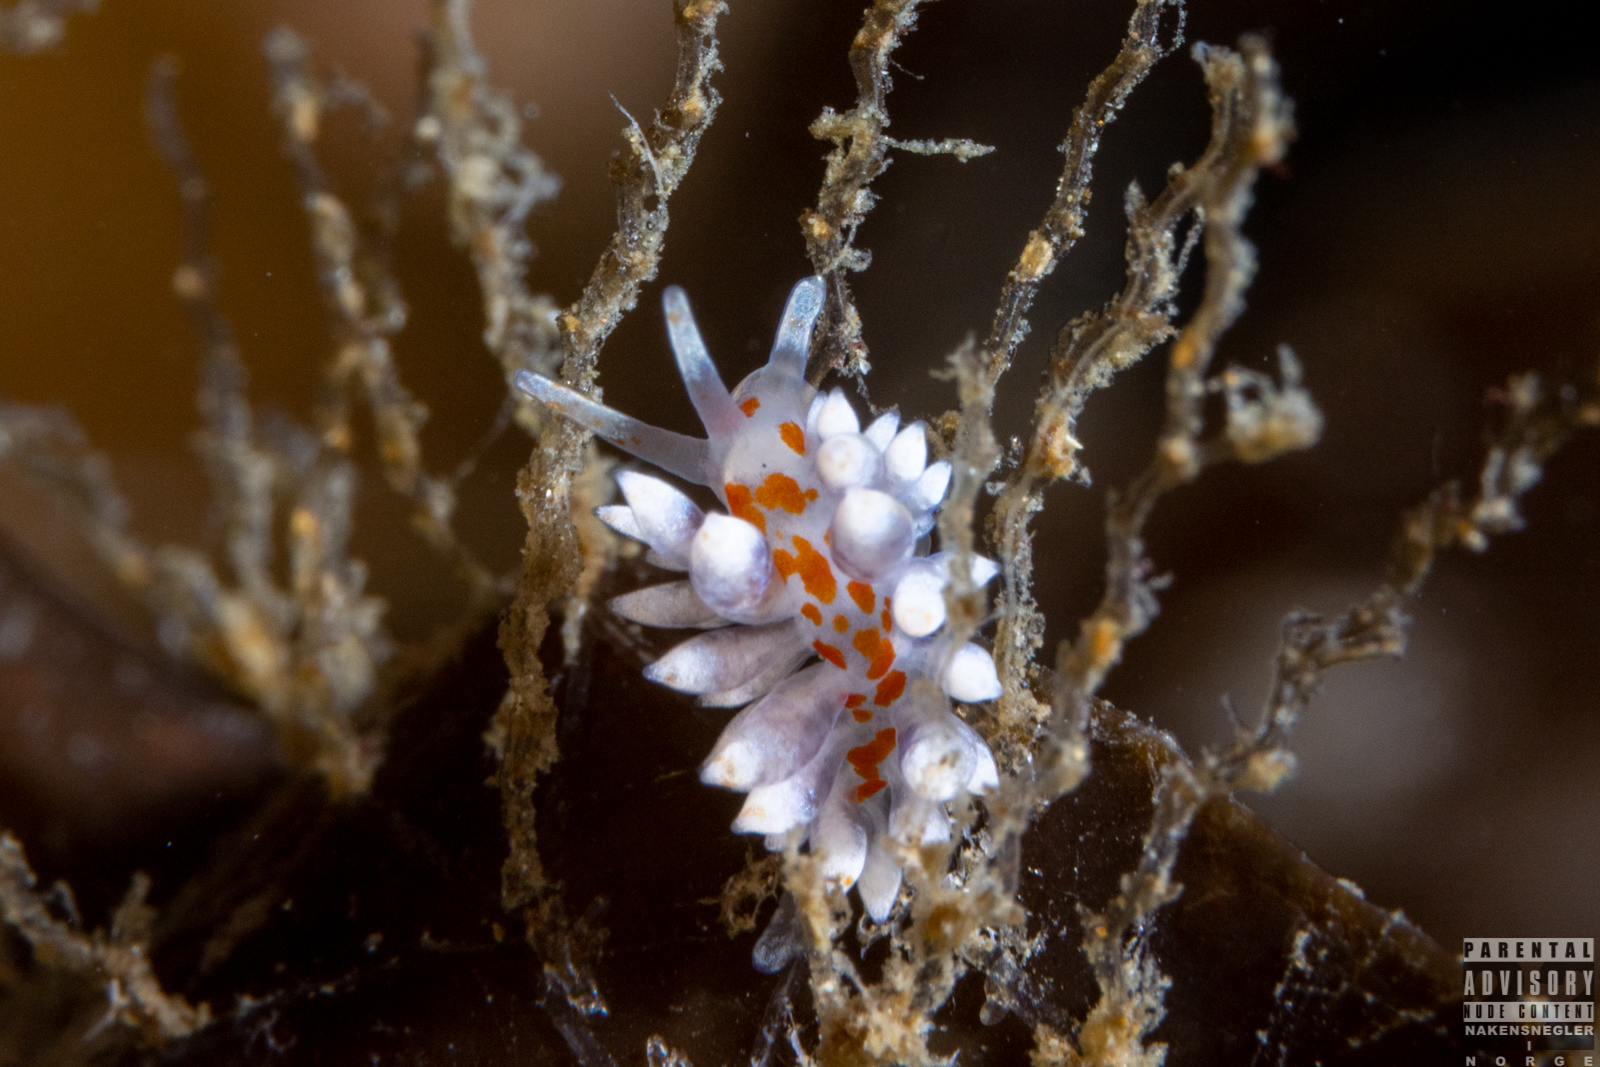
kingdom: Animalia
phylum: Mollusca
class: Gastropoda
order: Nudibranchia
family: Eubranchidae
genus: Amphorina
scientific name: Amphorina linensis
